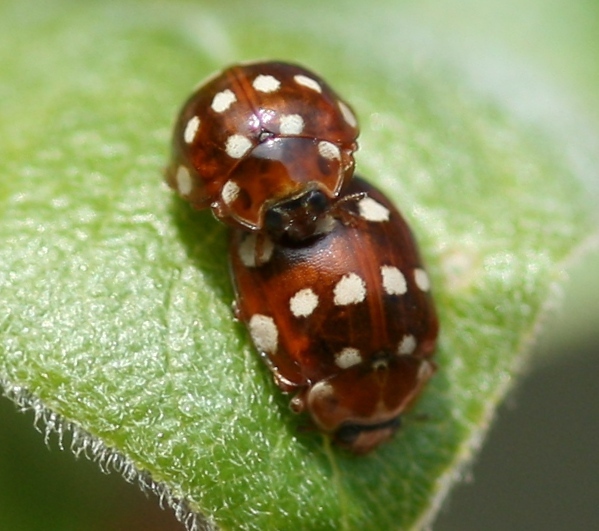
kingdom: Animalia
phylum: Arthropoda
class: Insecta
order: Coleoptera
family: Coccinellidae
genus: Calvia
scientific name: Calvia quatuordecimguttata
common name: Cream-spot ladybird
